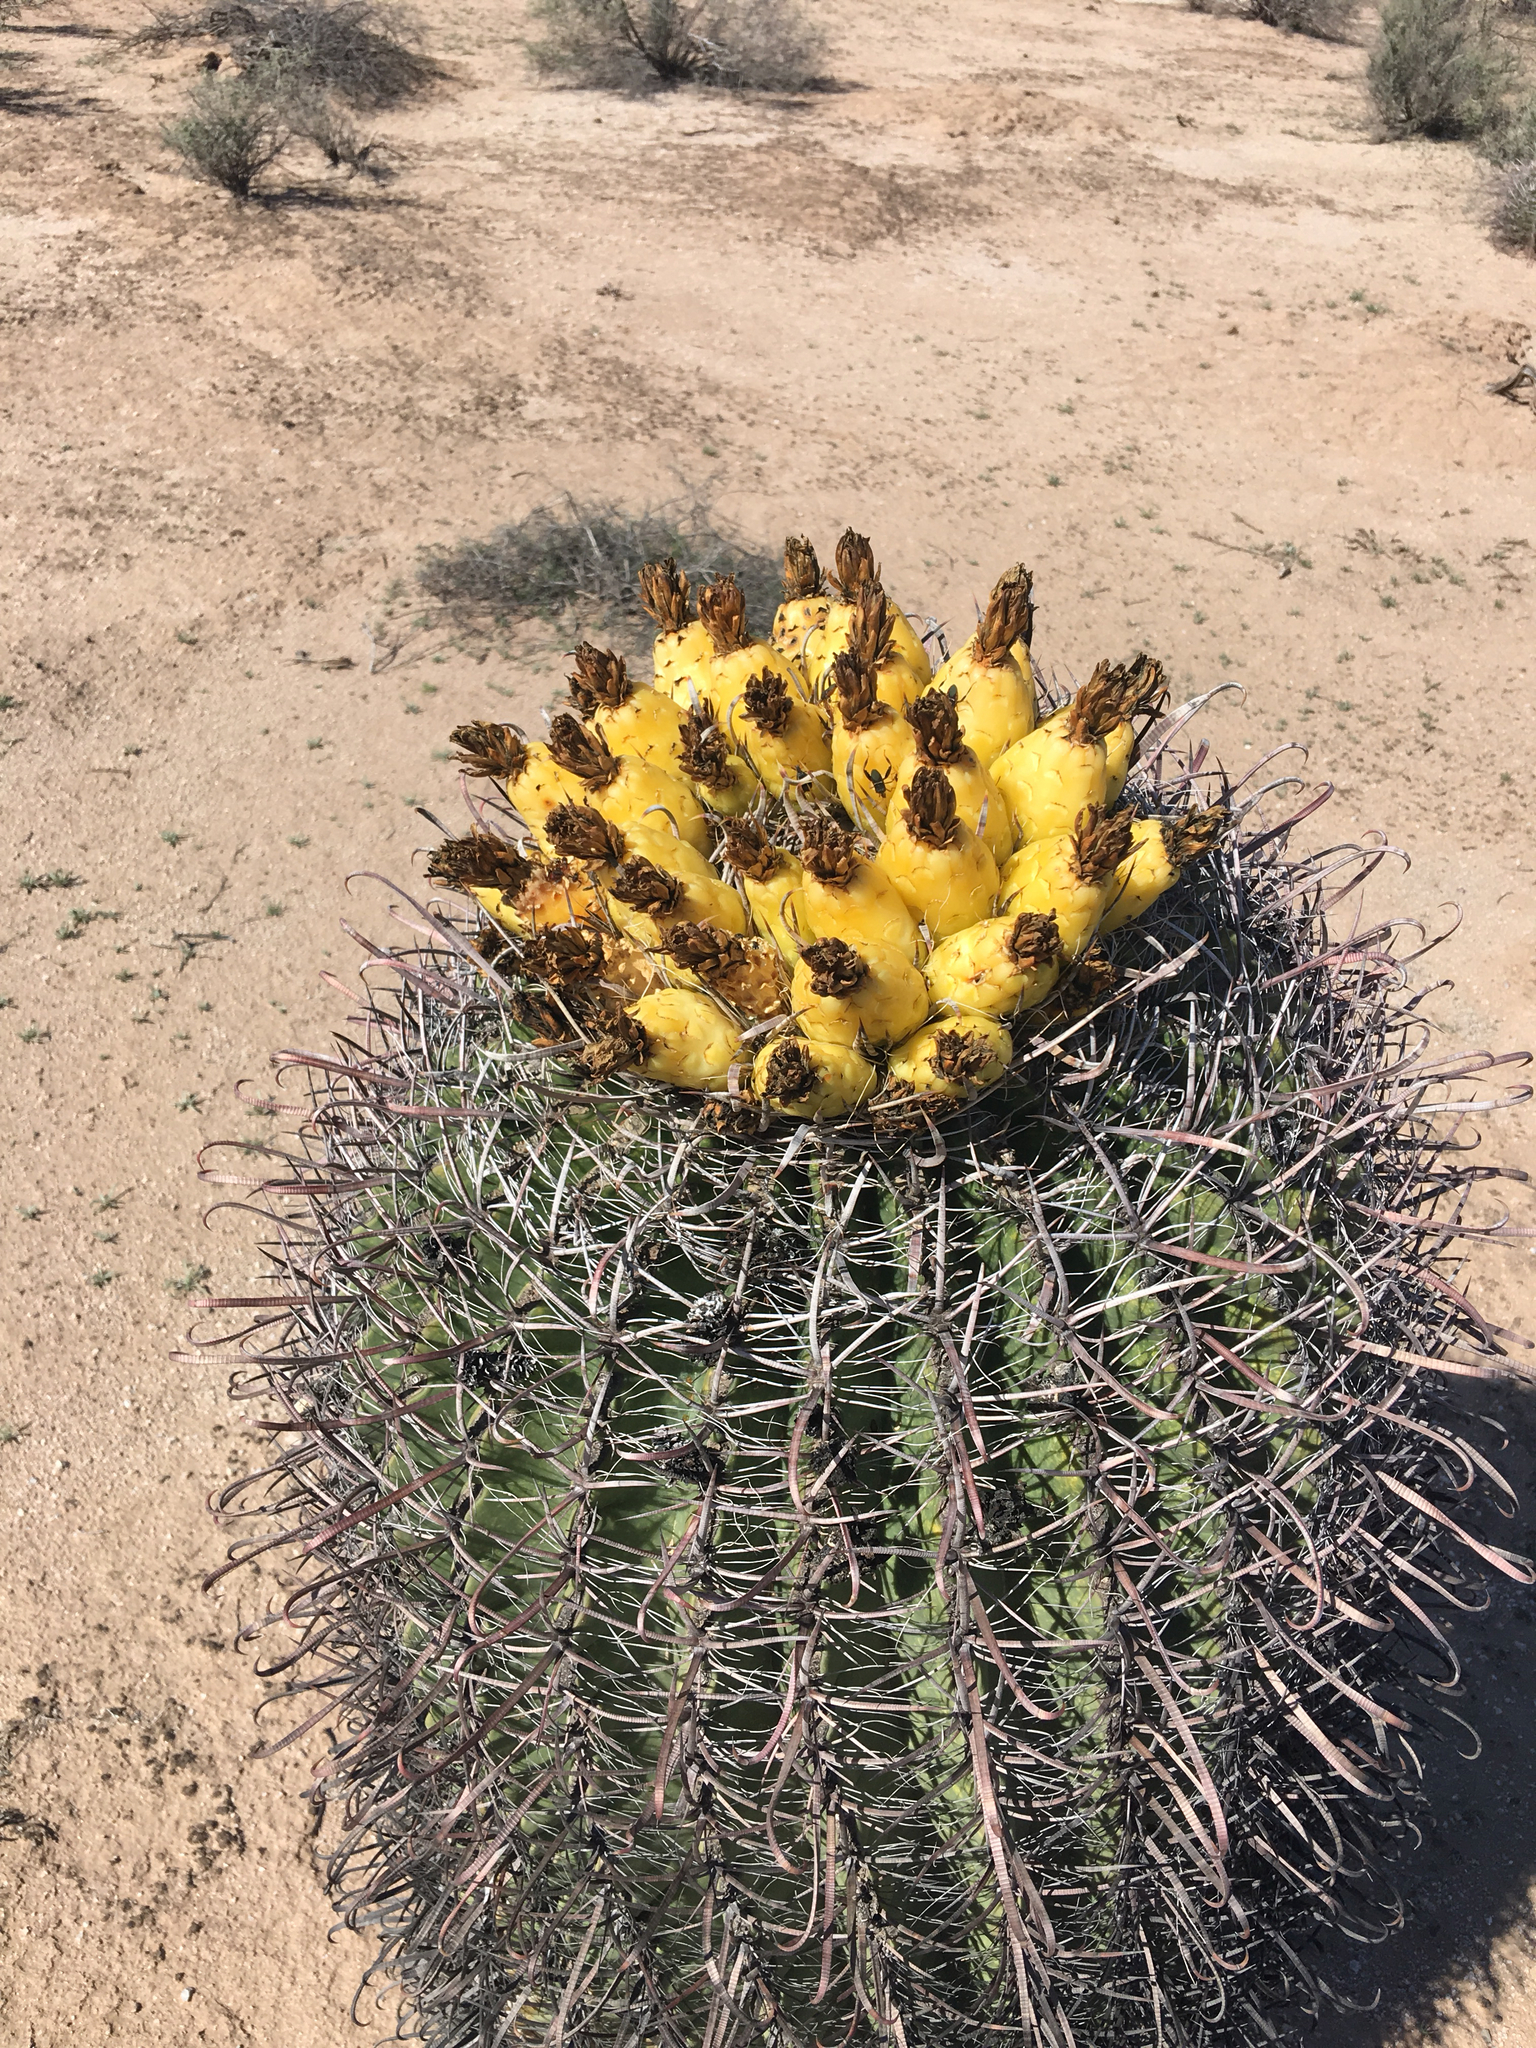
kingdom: Plantae
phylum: Tracheophyta
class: Magnoliopsida
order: Caryophyllales
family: Cactaceae
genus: Ferocactus
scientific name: Ferocactus wislizeni
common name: Candy barrel cactus
